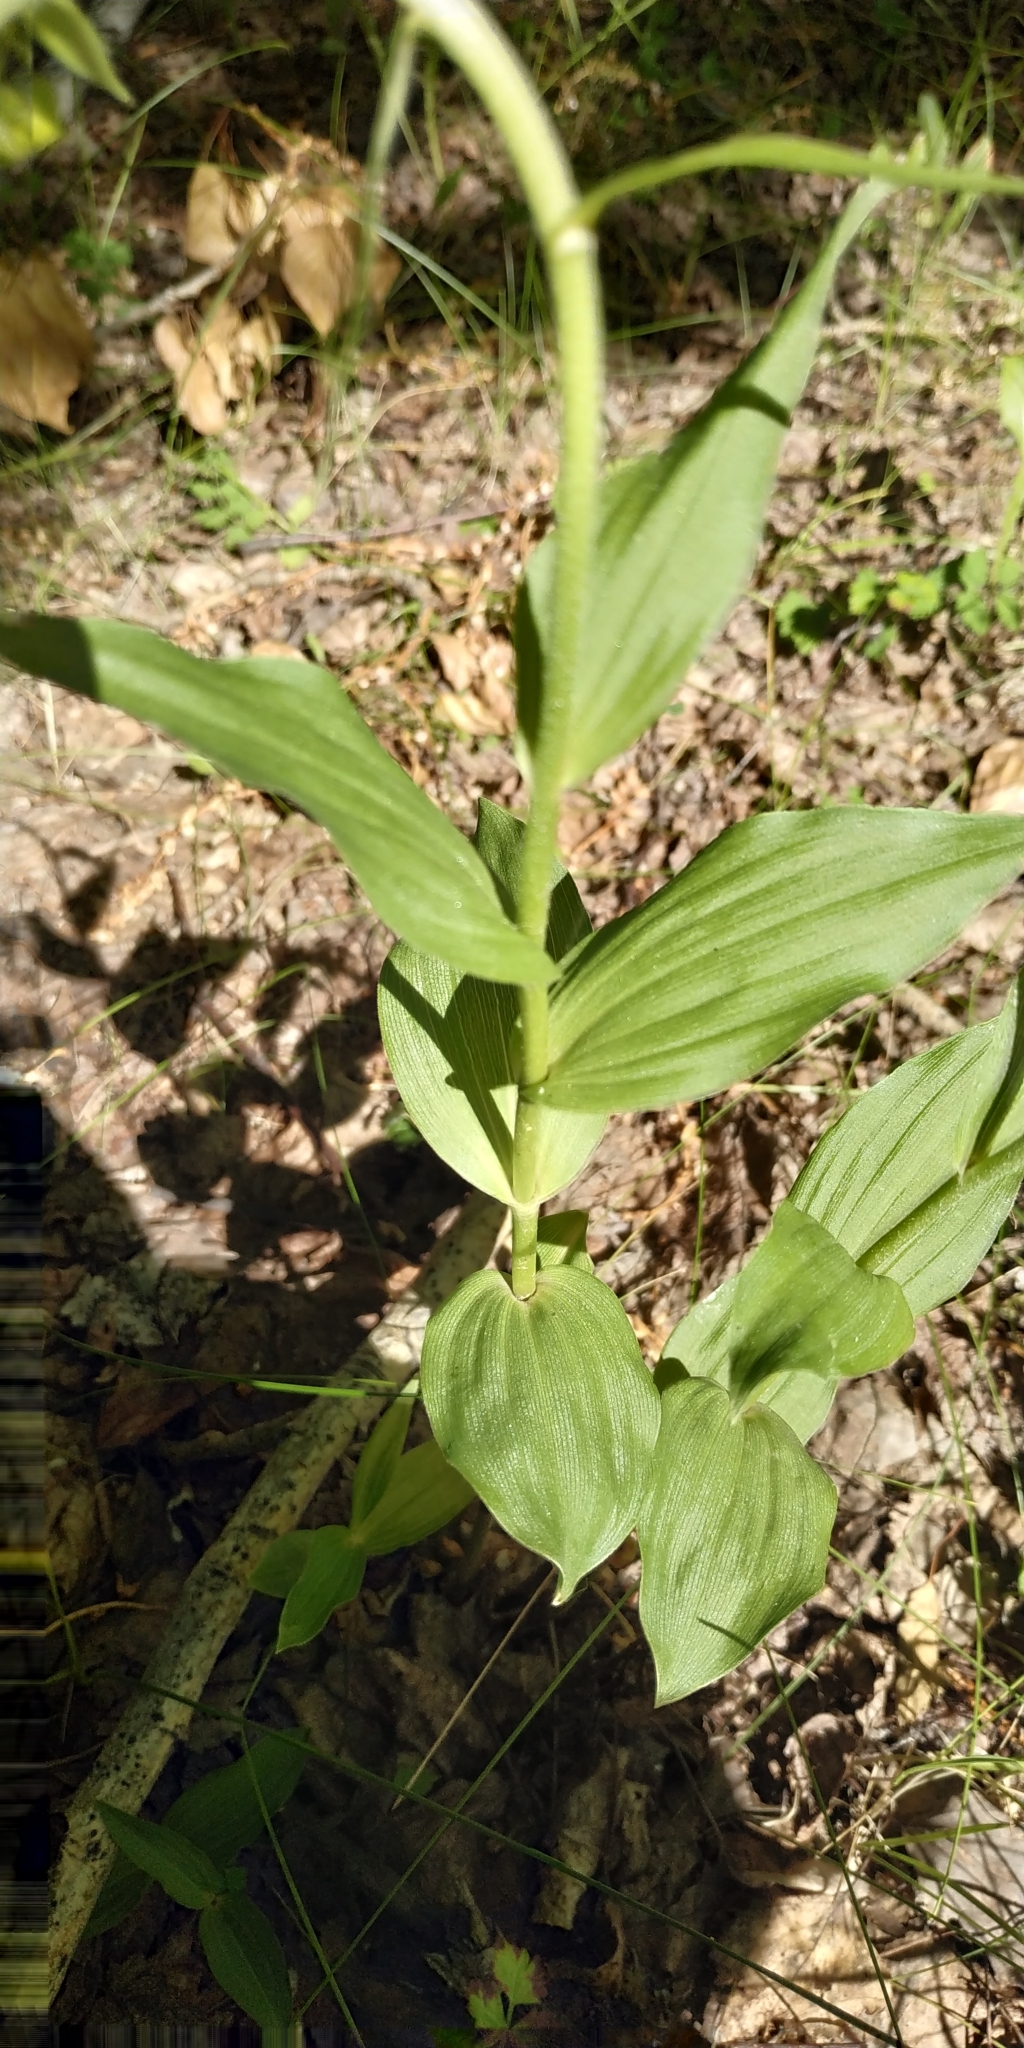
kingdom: Plantae
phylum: Tracheophyta
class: Liliopsida
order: Asparagales
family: Orchidaceae
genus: Epipactis
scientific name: Epipactis helleborine
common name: Broad-leaved helleborine
